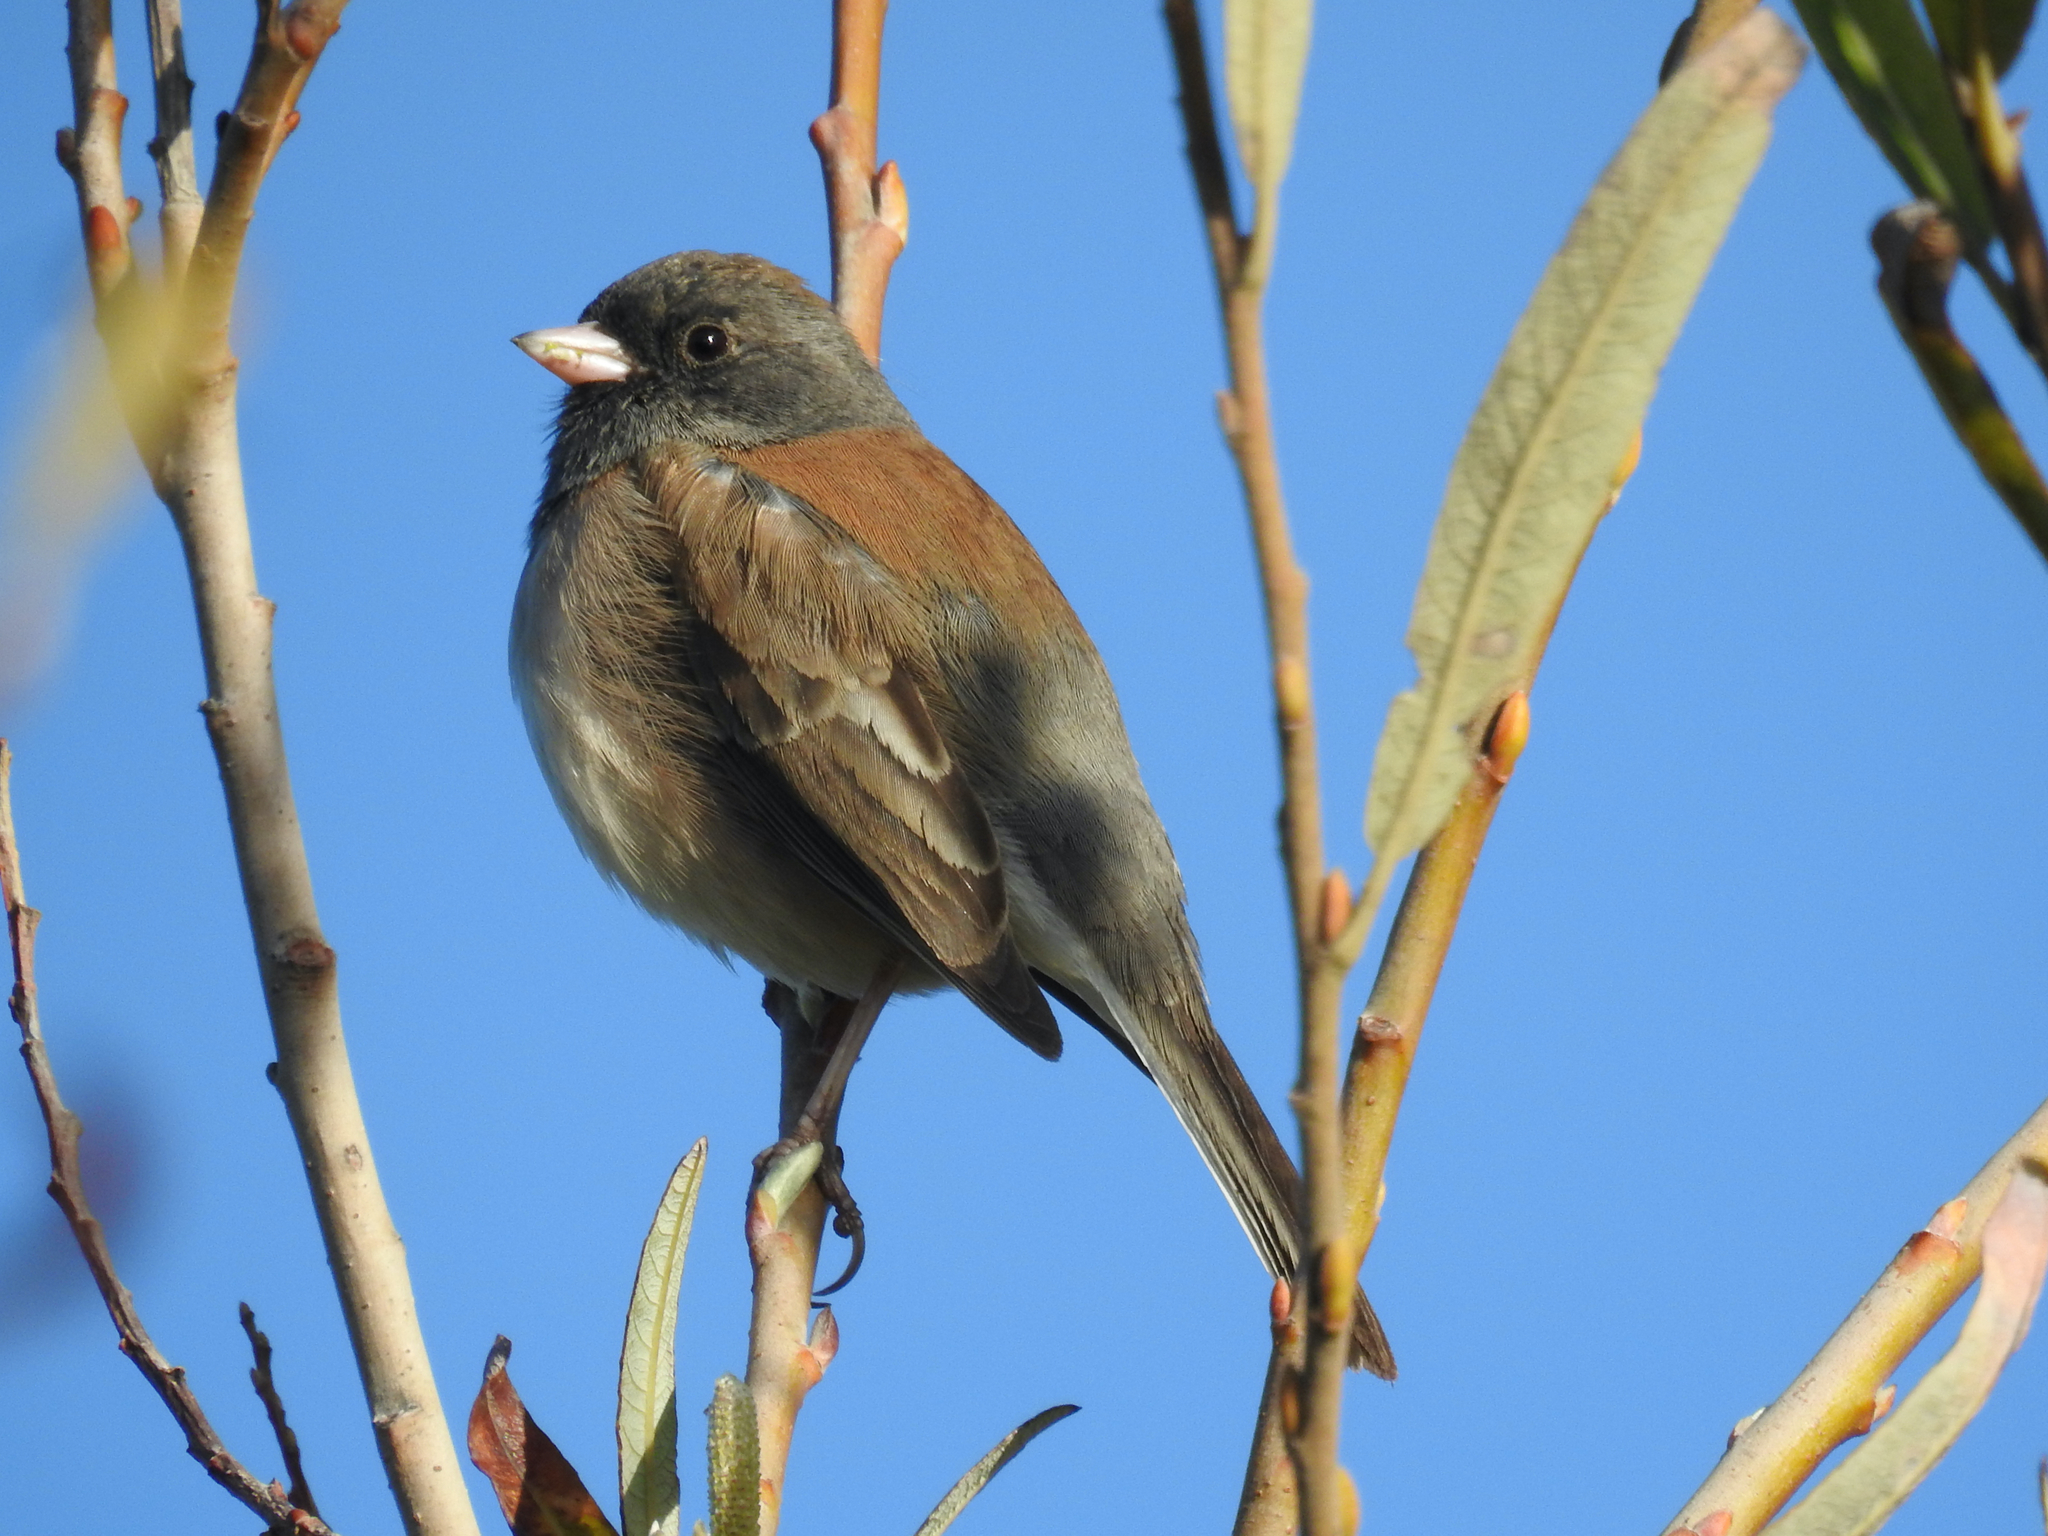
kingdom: Animalia
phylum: Chordata
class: Aves
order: Passeriformes
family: Passerellidae
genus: Junco
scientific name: Junco hyemalis
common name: Dark-eyed junco
